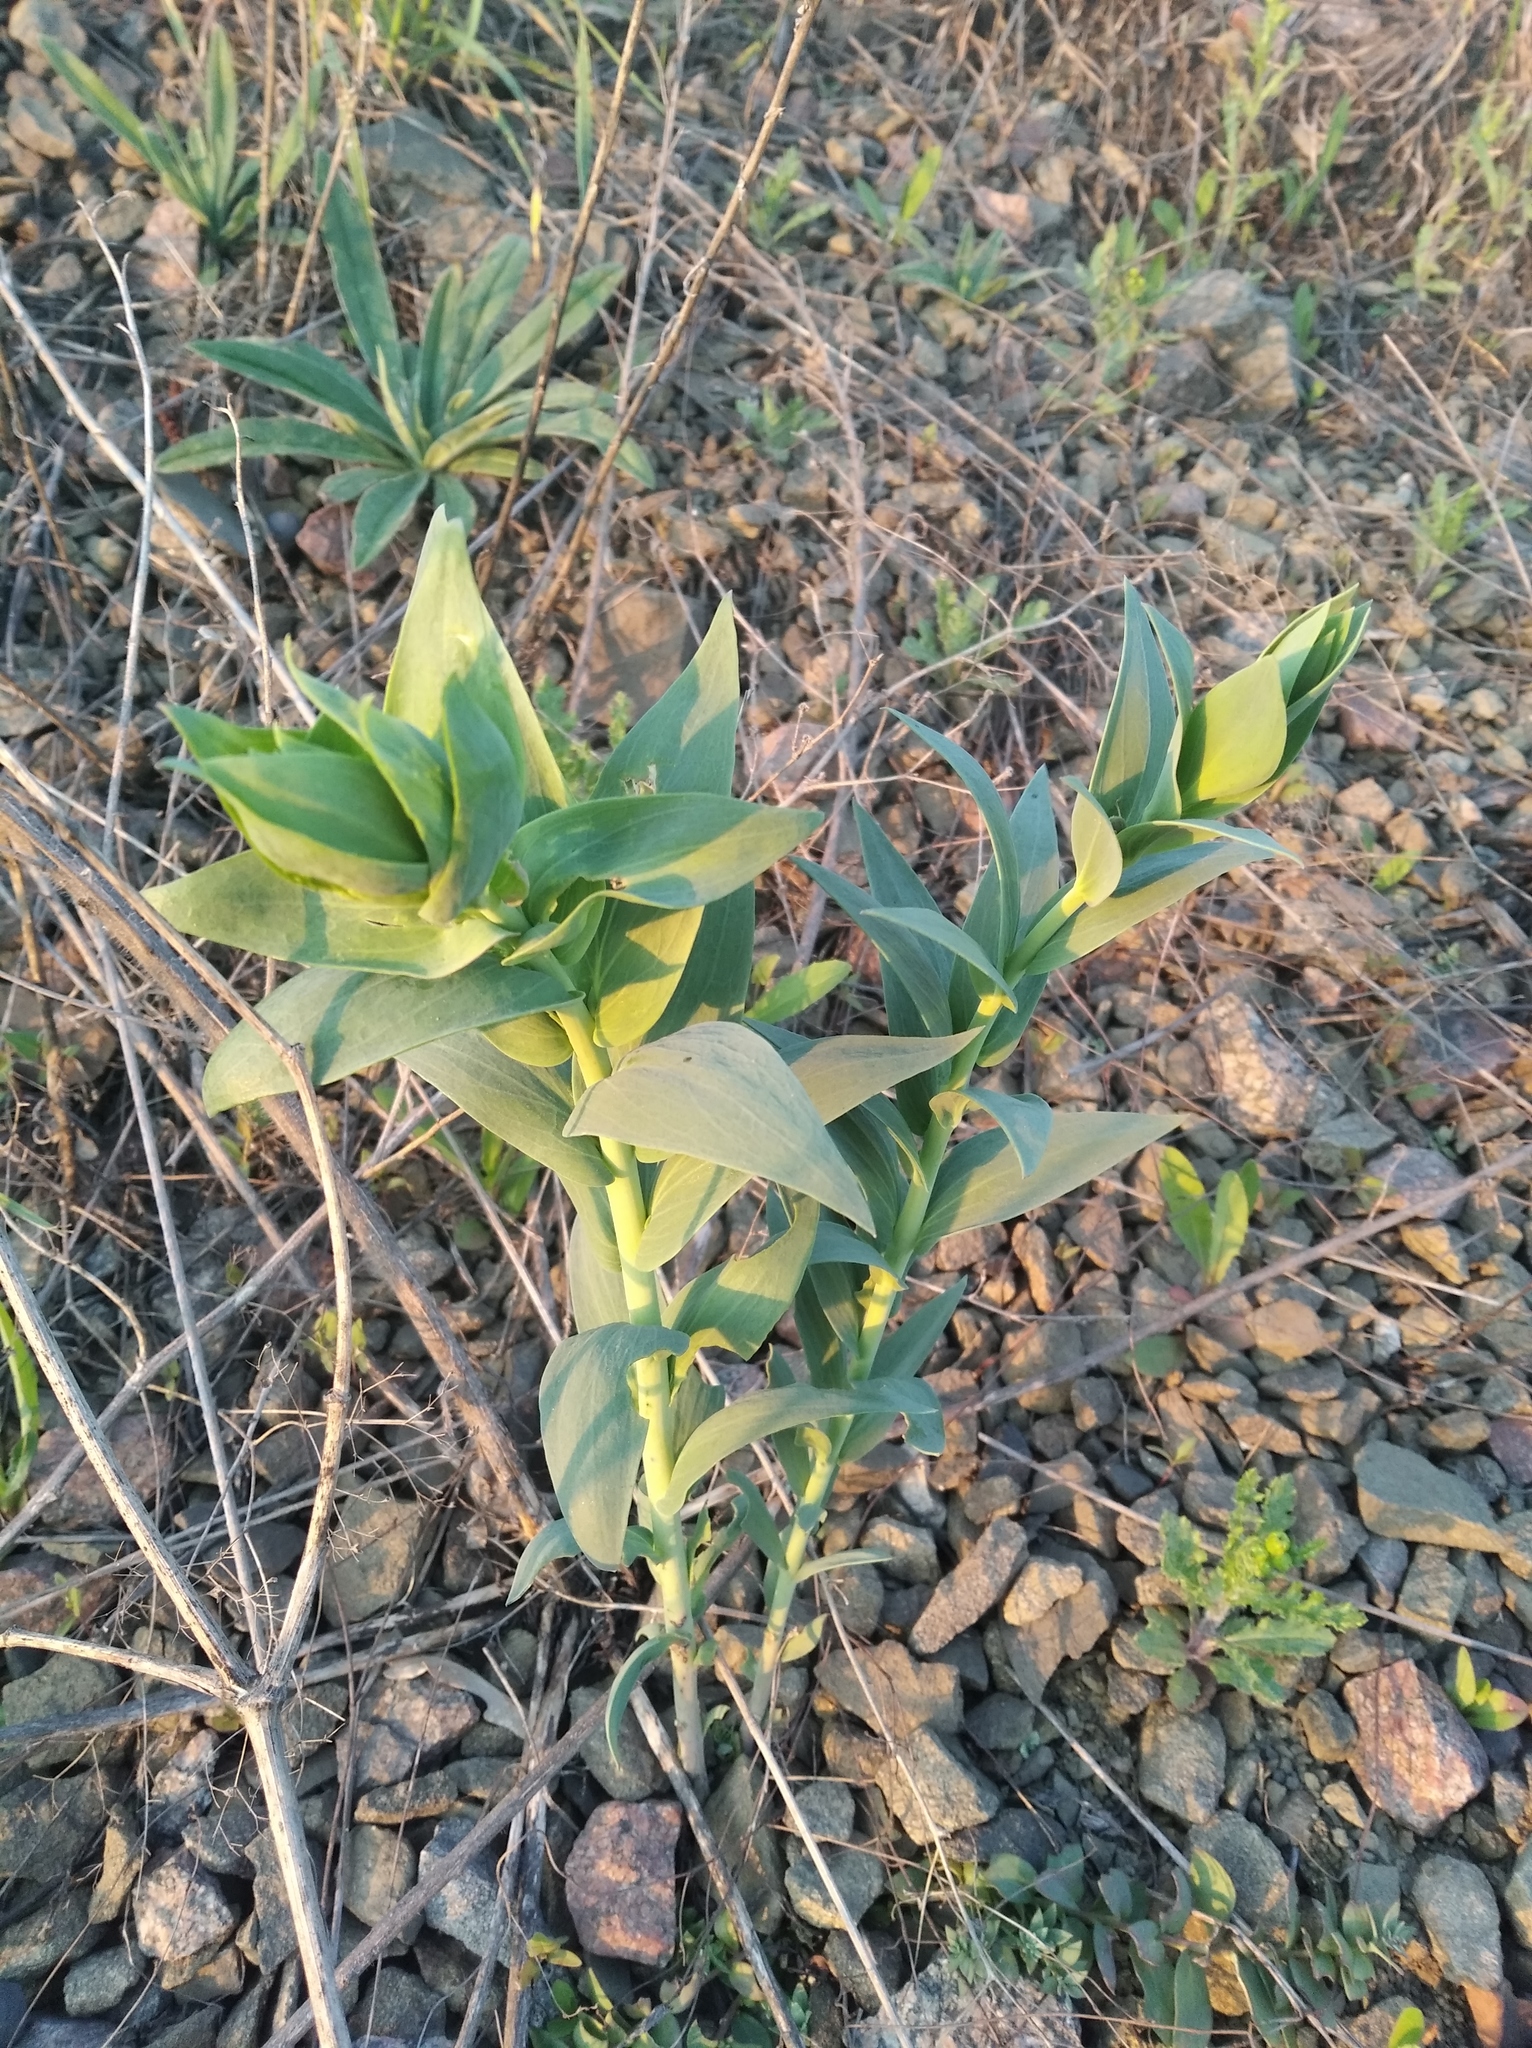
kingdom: Plantae
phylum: Tracheophyta
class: Magnoliopsida
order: Lamiales
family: Plantaginaceae
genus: Linaria
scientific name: Linaria genistifolia
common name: Broomleaf toadflax
